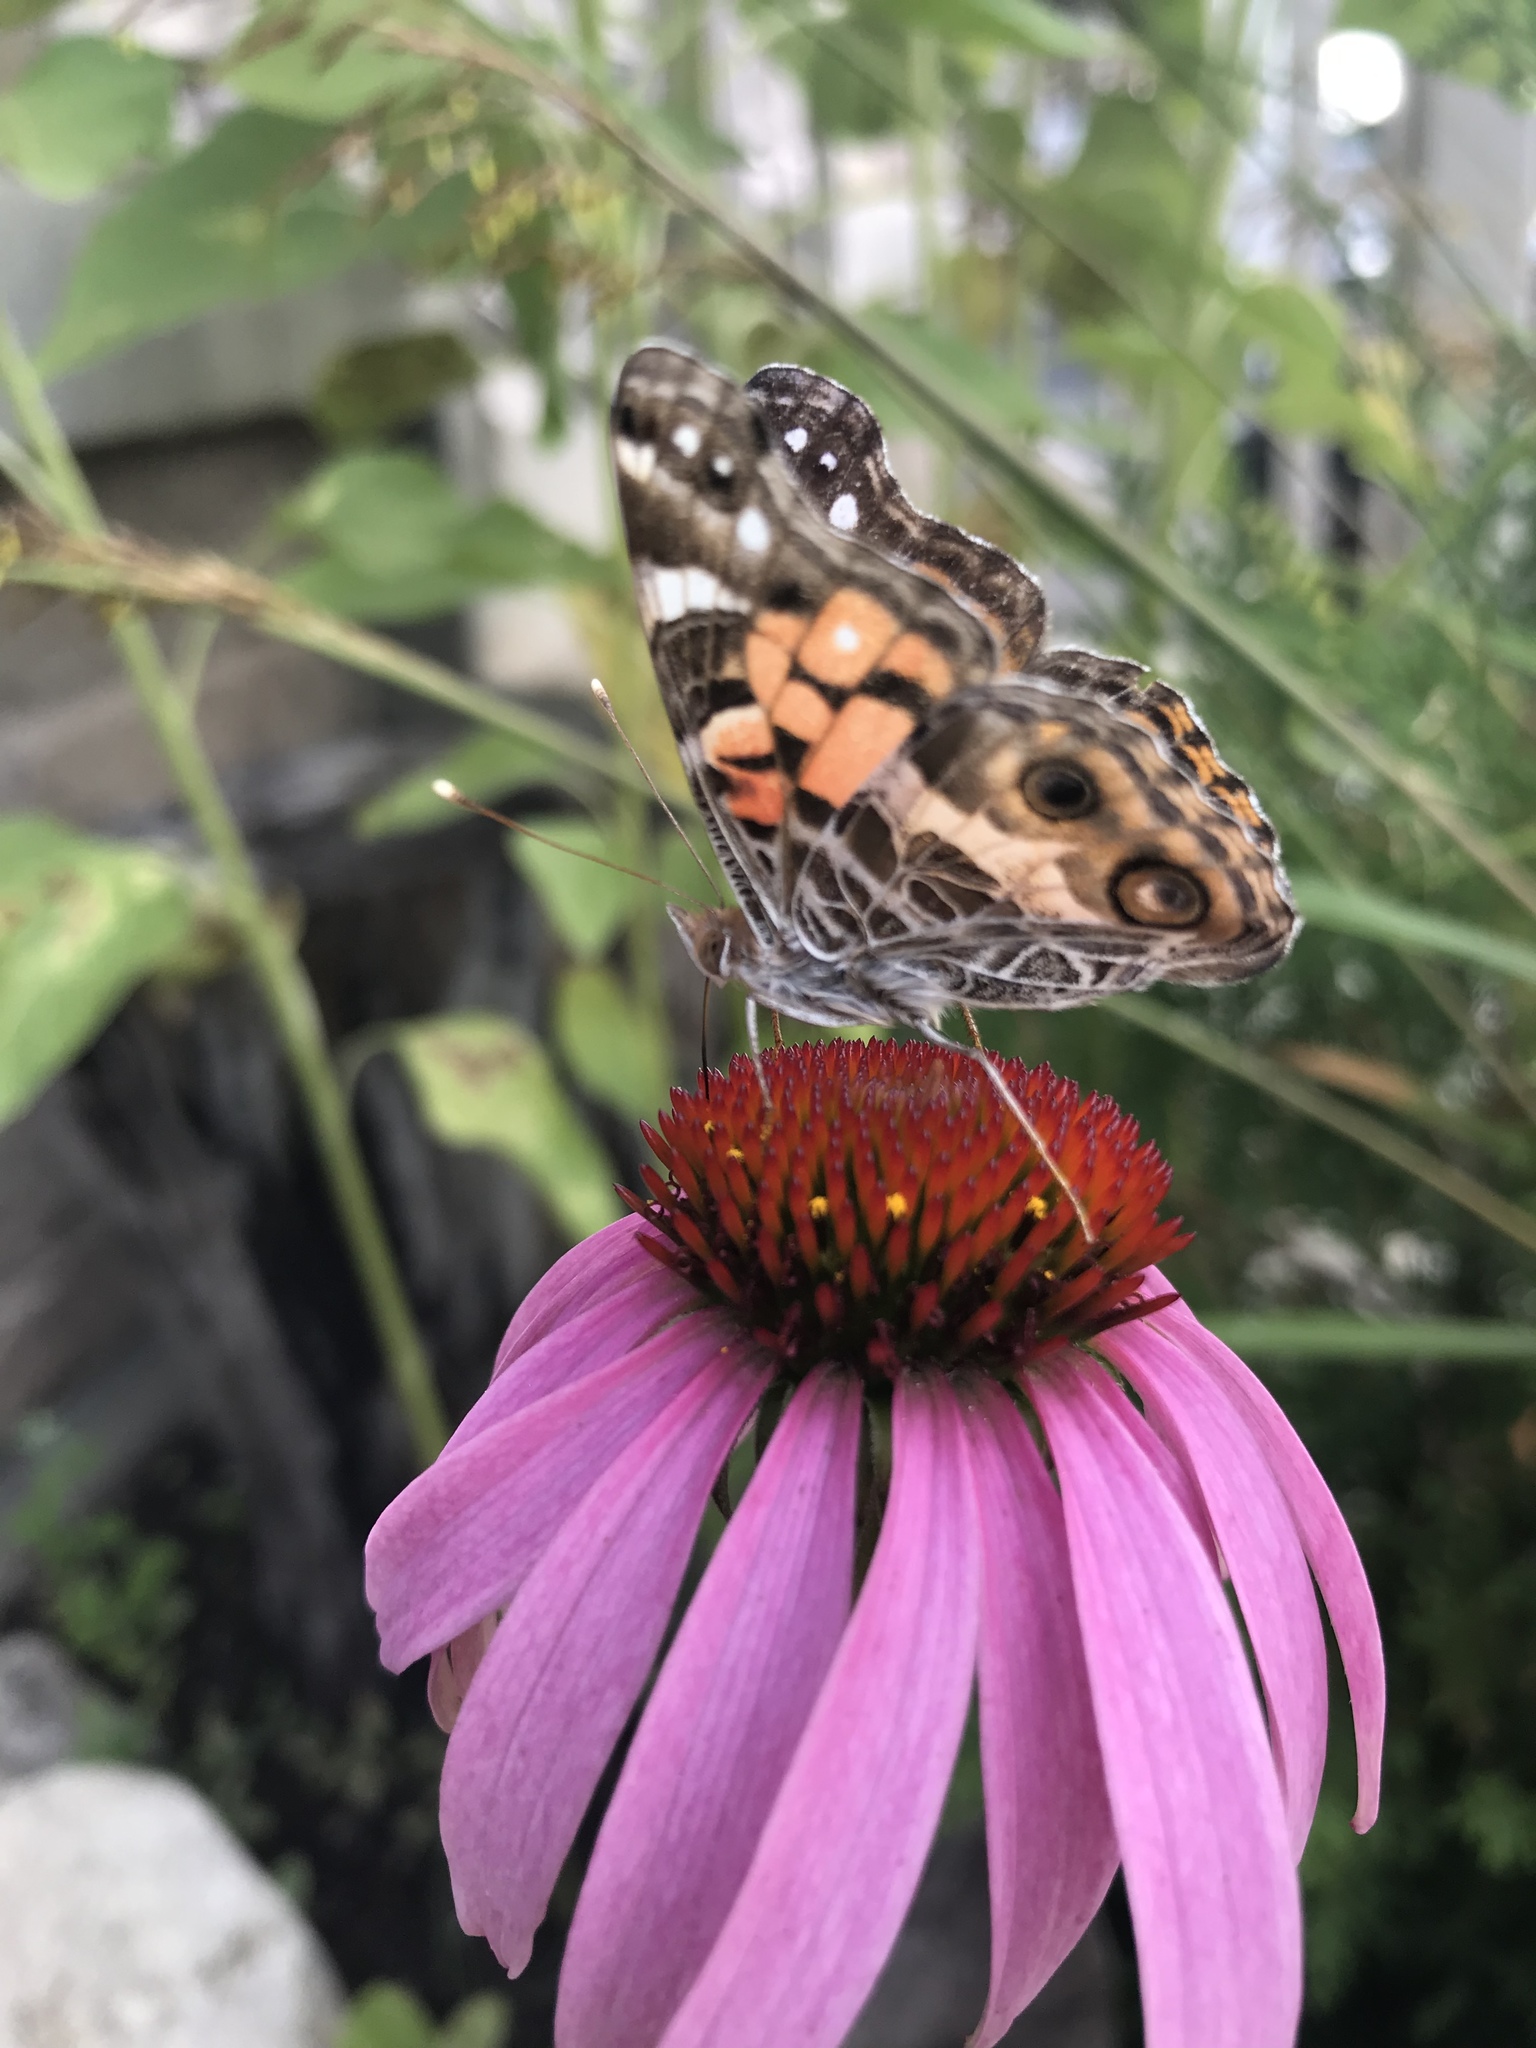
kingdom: Animalia
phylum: Arthropoda
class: Insecta
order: Lepidoptera
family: Nymphalidae
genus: Vanessa
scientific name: Vanessa virginiensis
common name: American lady
